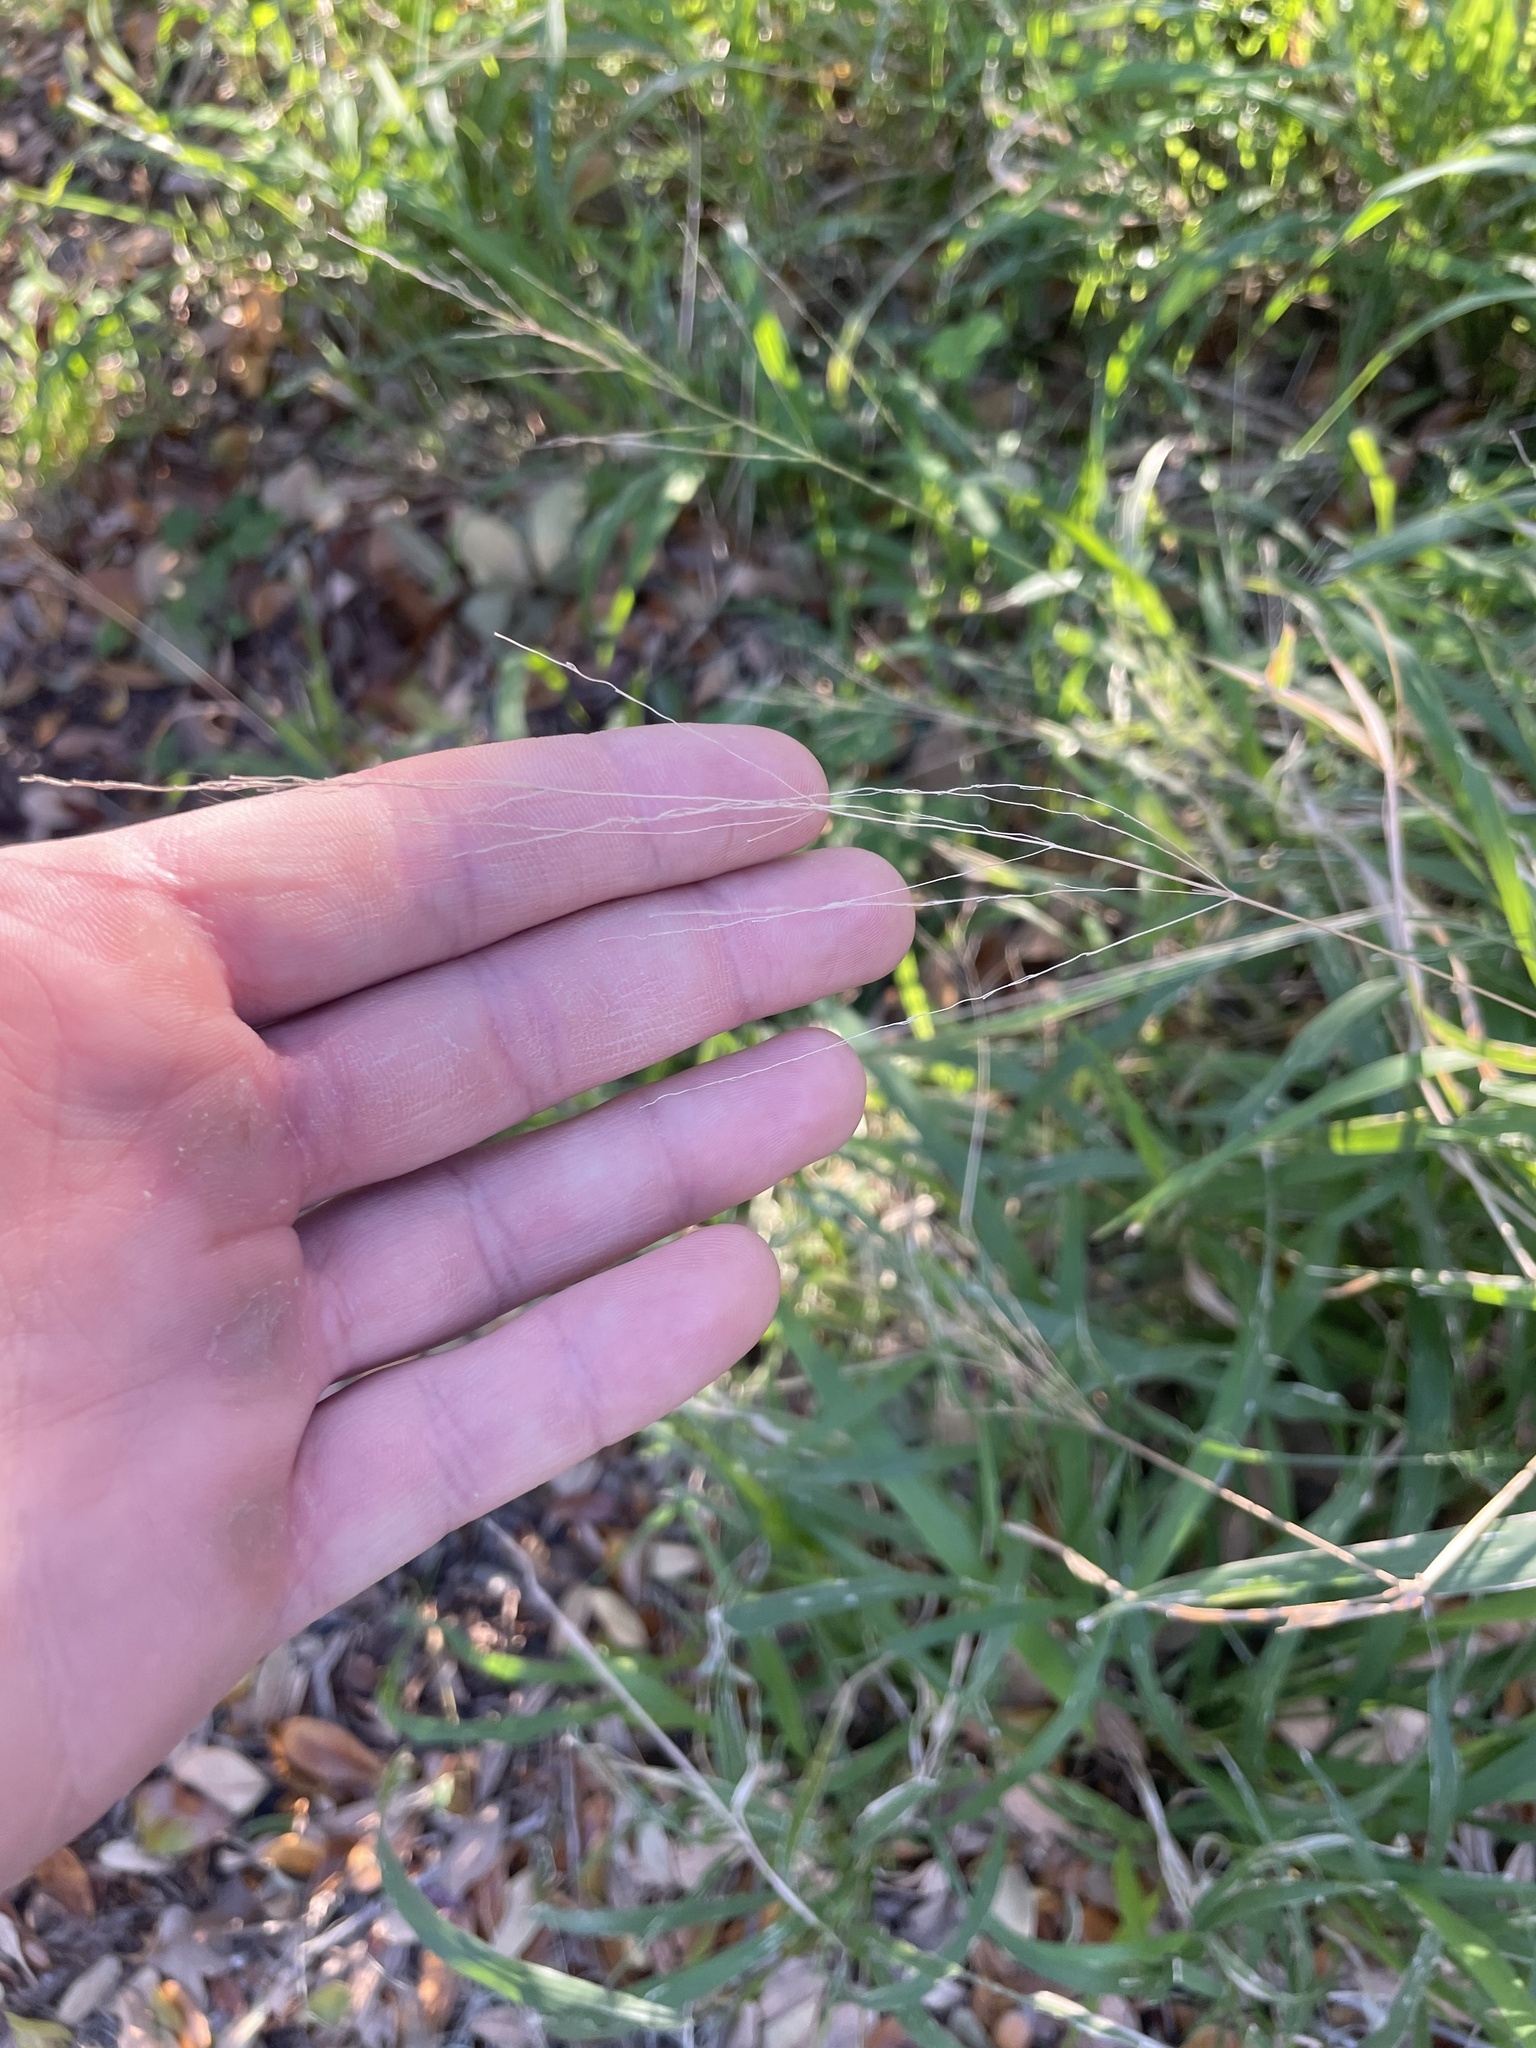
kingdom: Plantae
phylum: Tracheophyta
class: Liliopsida
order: Poales
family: Poaceae
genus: Megathyrsus
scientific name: Megathyrsus maximus
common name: Guineagrass
